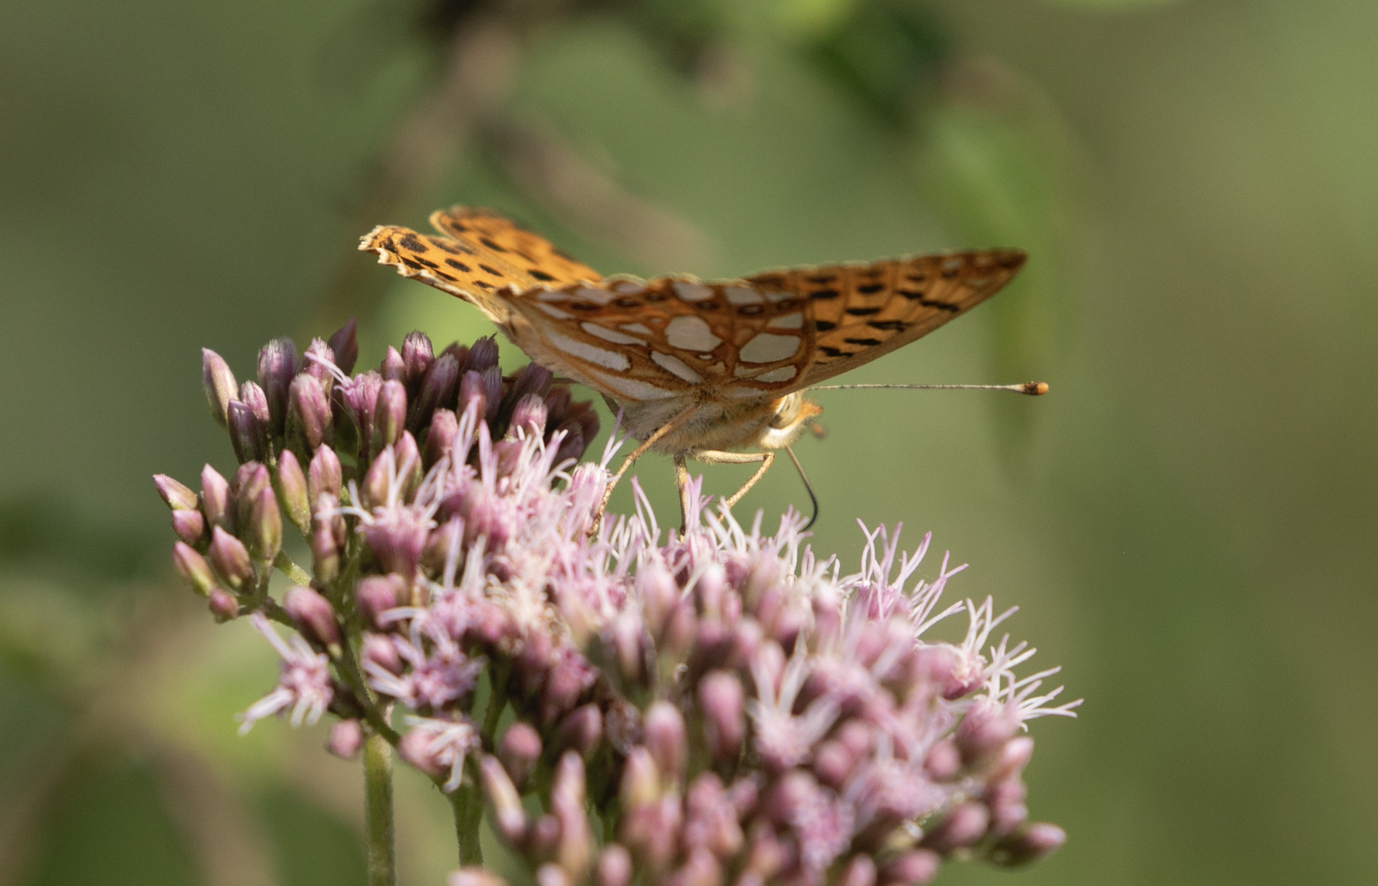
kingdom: Animalia
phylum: Arthropoda
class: Insecta
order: Lepidoptera
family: Nymphalidae
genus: Issoria
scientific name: Issoria lathonia
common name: Queen of spain fritillary
